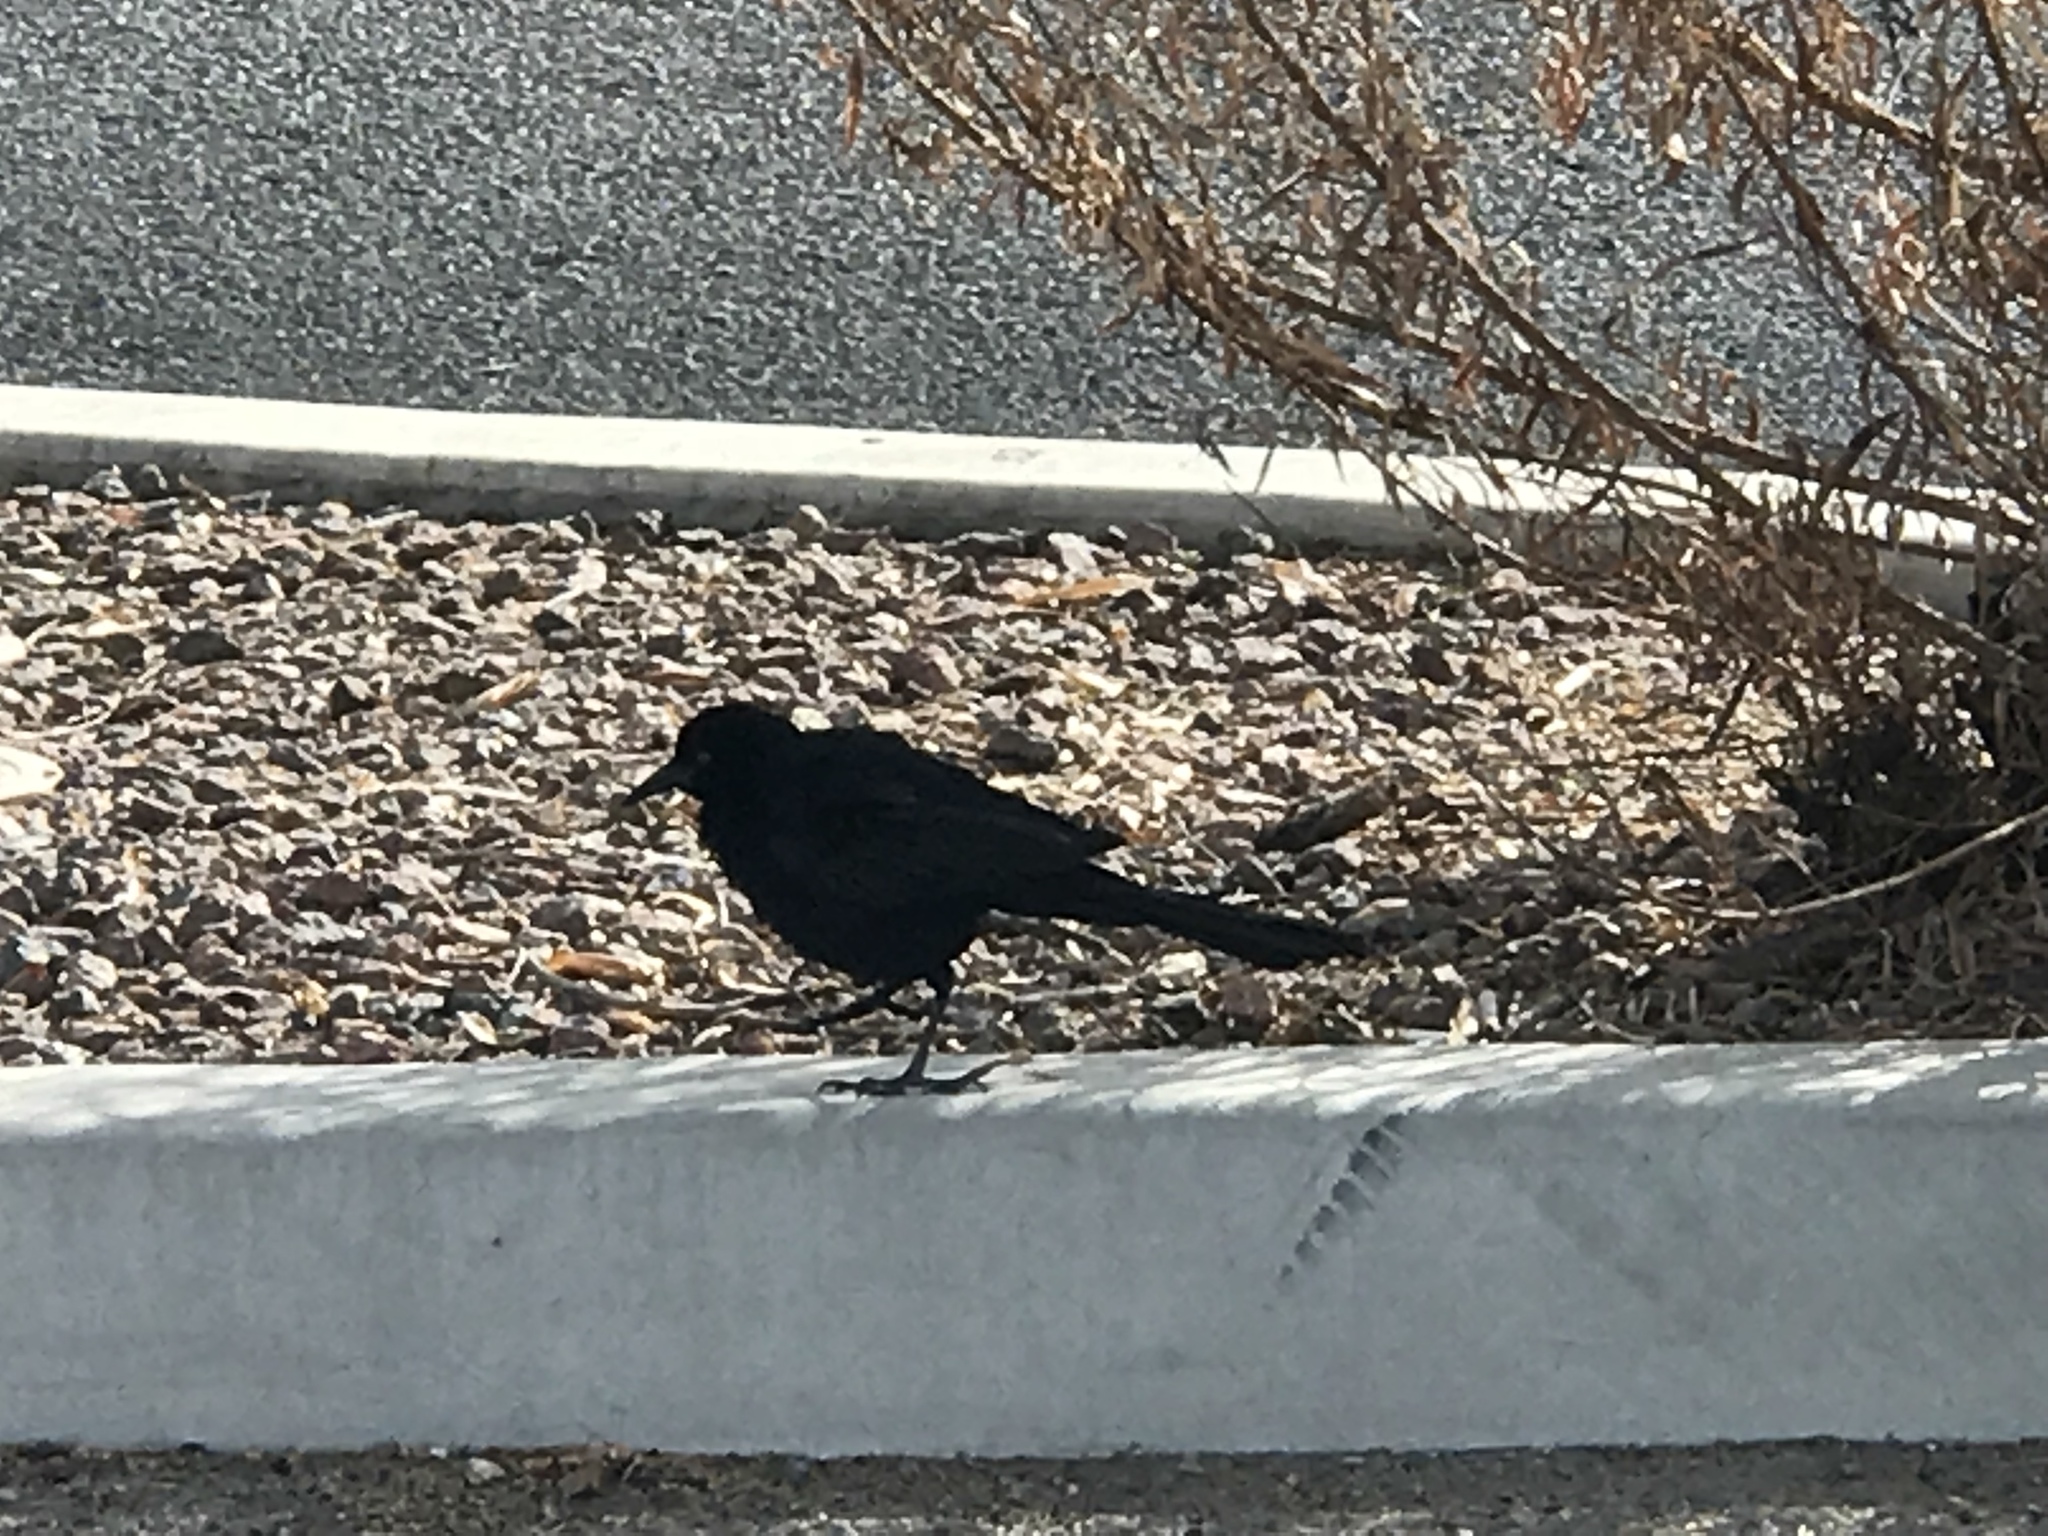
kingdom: Animalia
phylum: Chordata
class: Aves
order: Passeriformes
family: Icteridae
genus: Quiscalus
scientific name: Quiscalus mexicanus
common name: Great-tailed grackle
